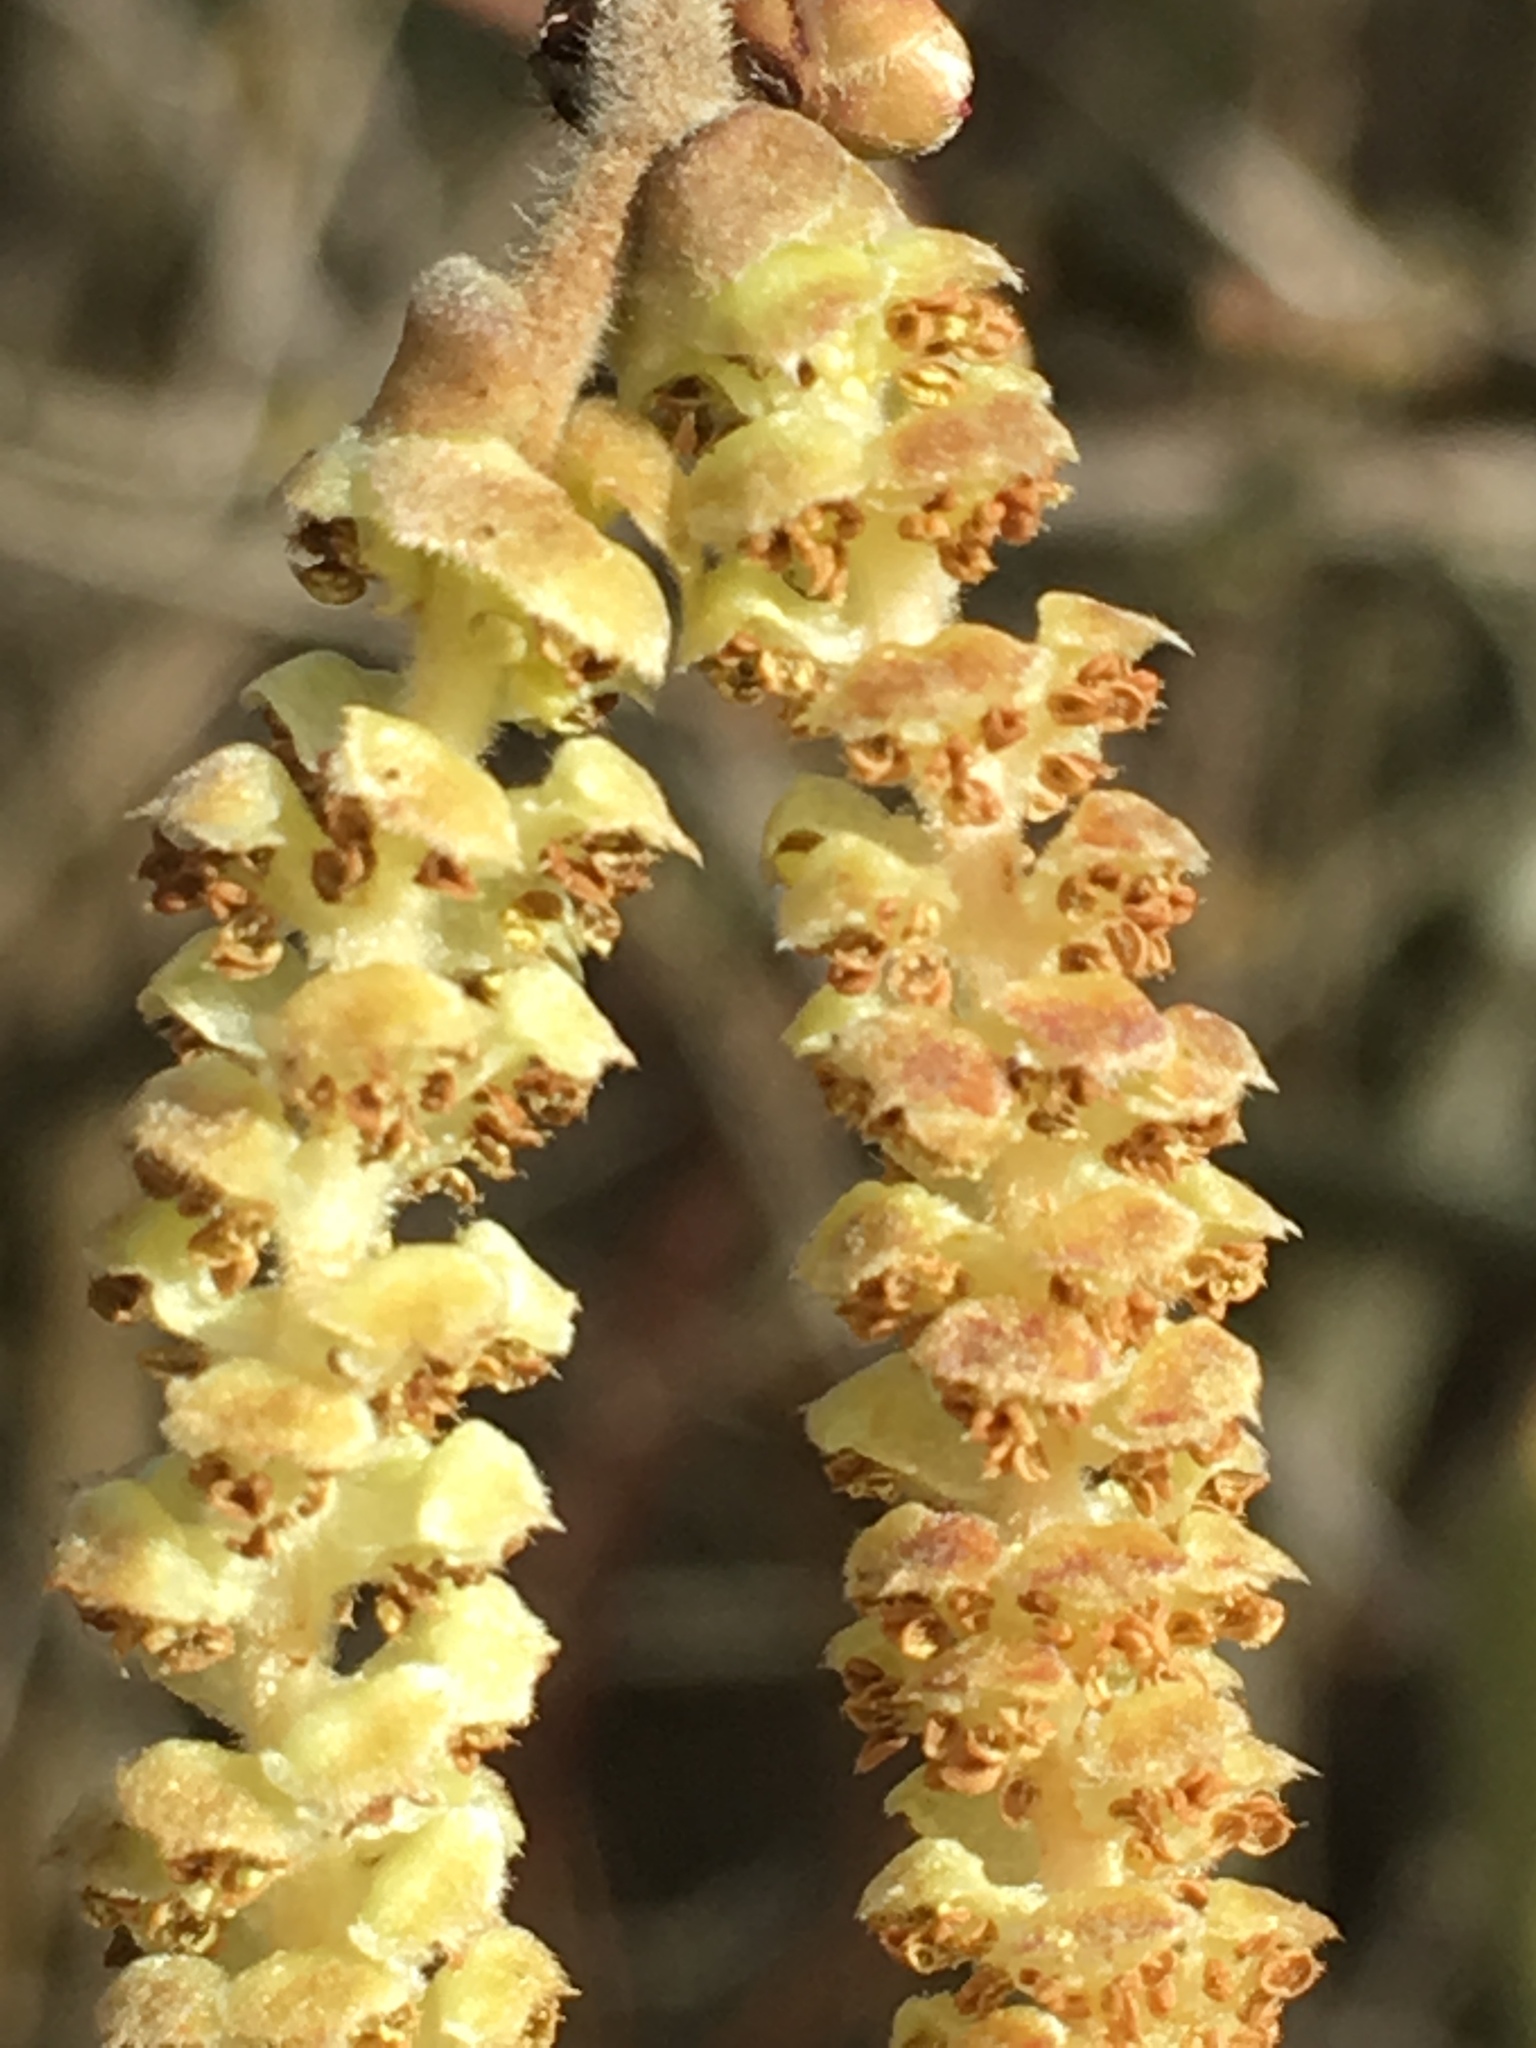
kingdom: Plantae
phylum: Tracheophyta
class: Magnoliopsida
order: Fagales
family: Betulaceae
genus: Corylus
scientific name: Corylus cornuta
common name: Beaked hazel
